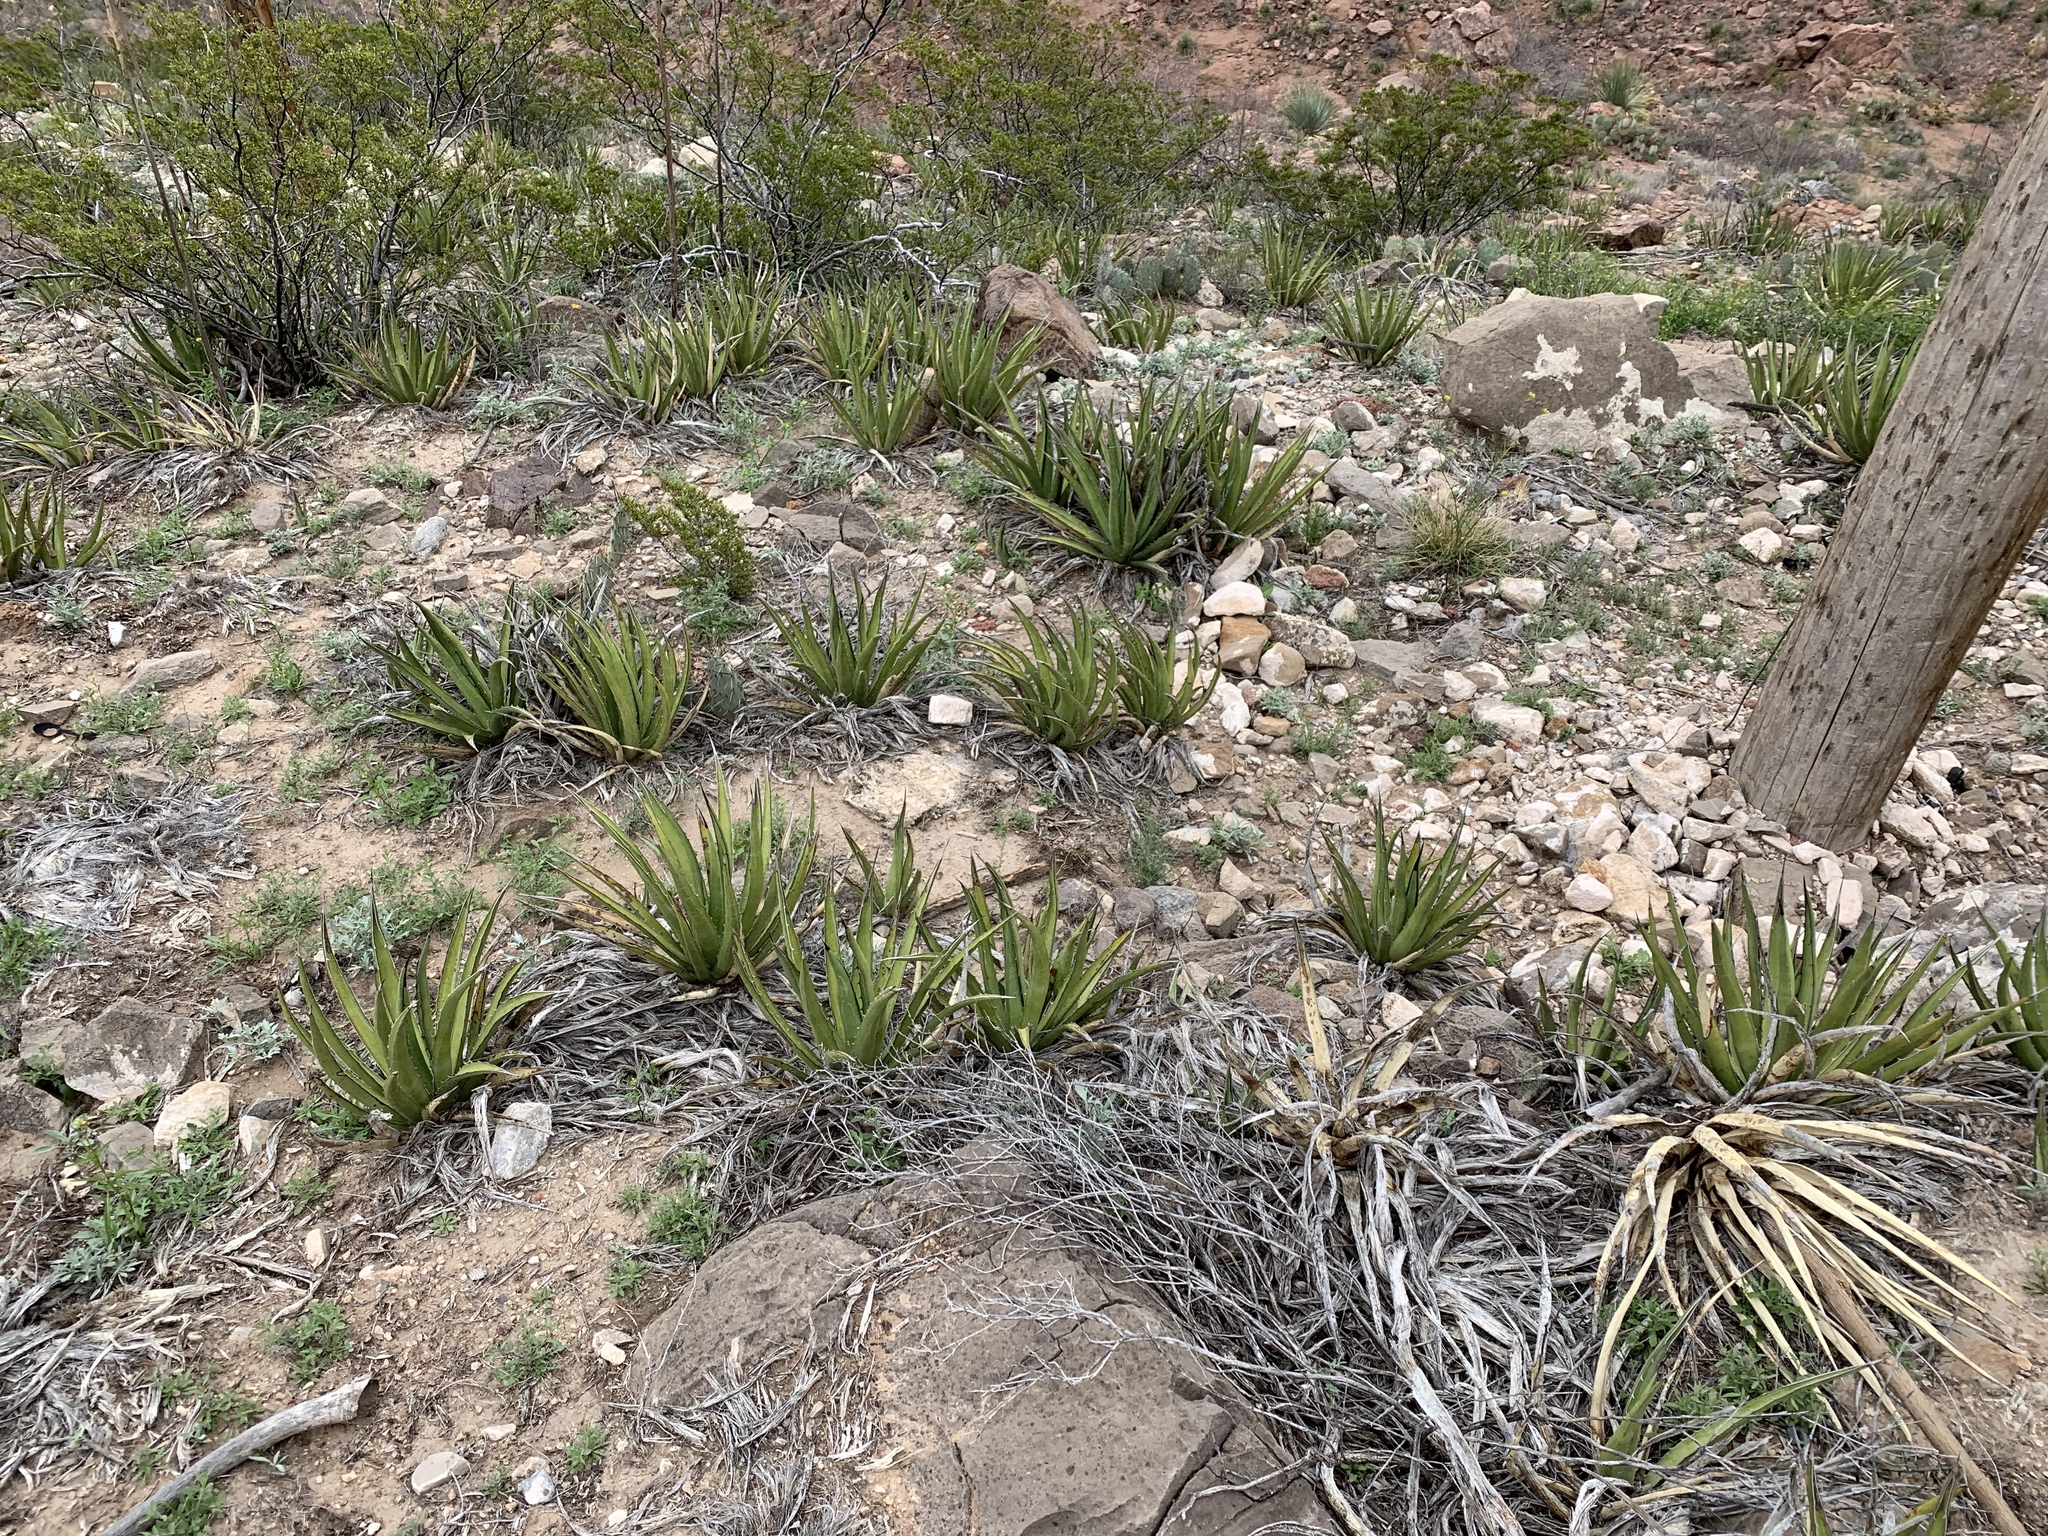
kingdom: Plantae
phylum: Tracheophyta
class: Liliopsida
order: Asparagales
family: Asparagaceae
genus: Agave
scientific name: Agave lechuguilla
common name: Lecheguilla agave
